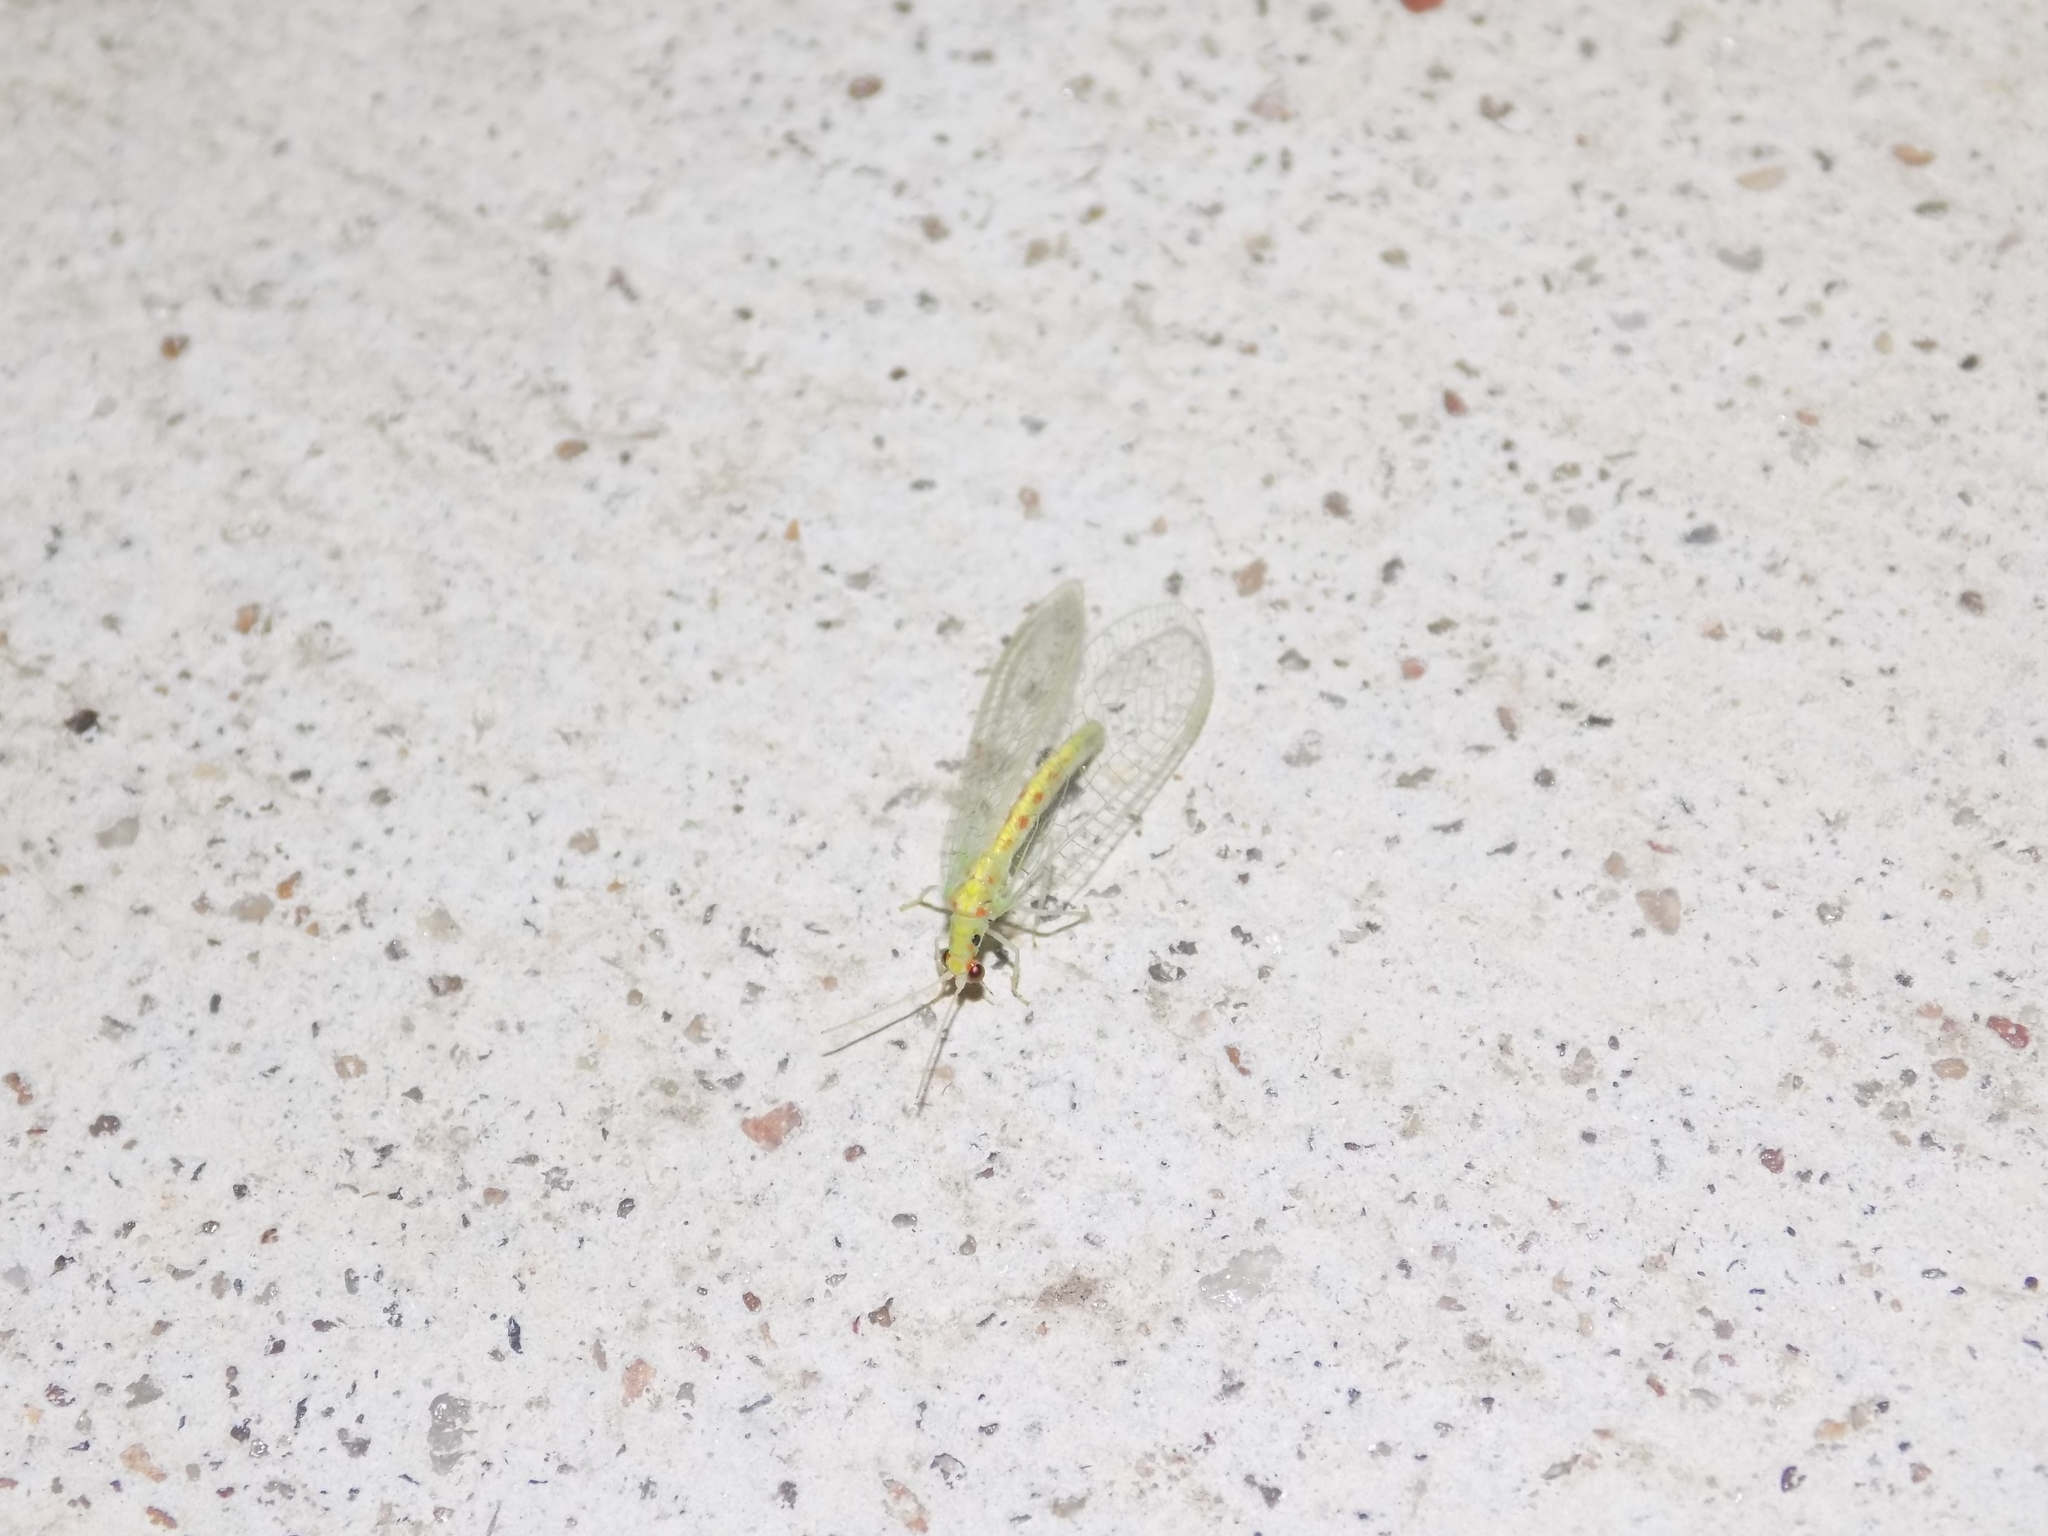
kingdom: Animalia
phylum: Arthropoda
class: Insecta
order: Neuroptera
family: Chrysopidae
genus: Chrysopa
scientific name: Chrysopa quadripunctata
